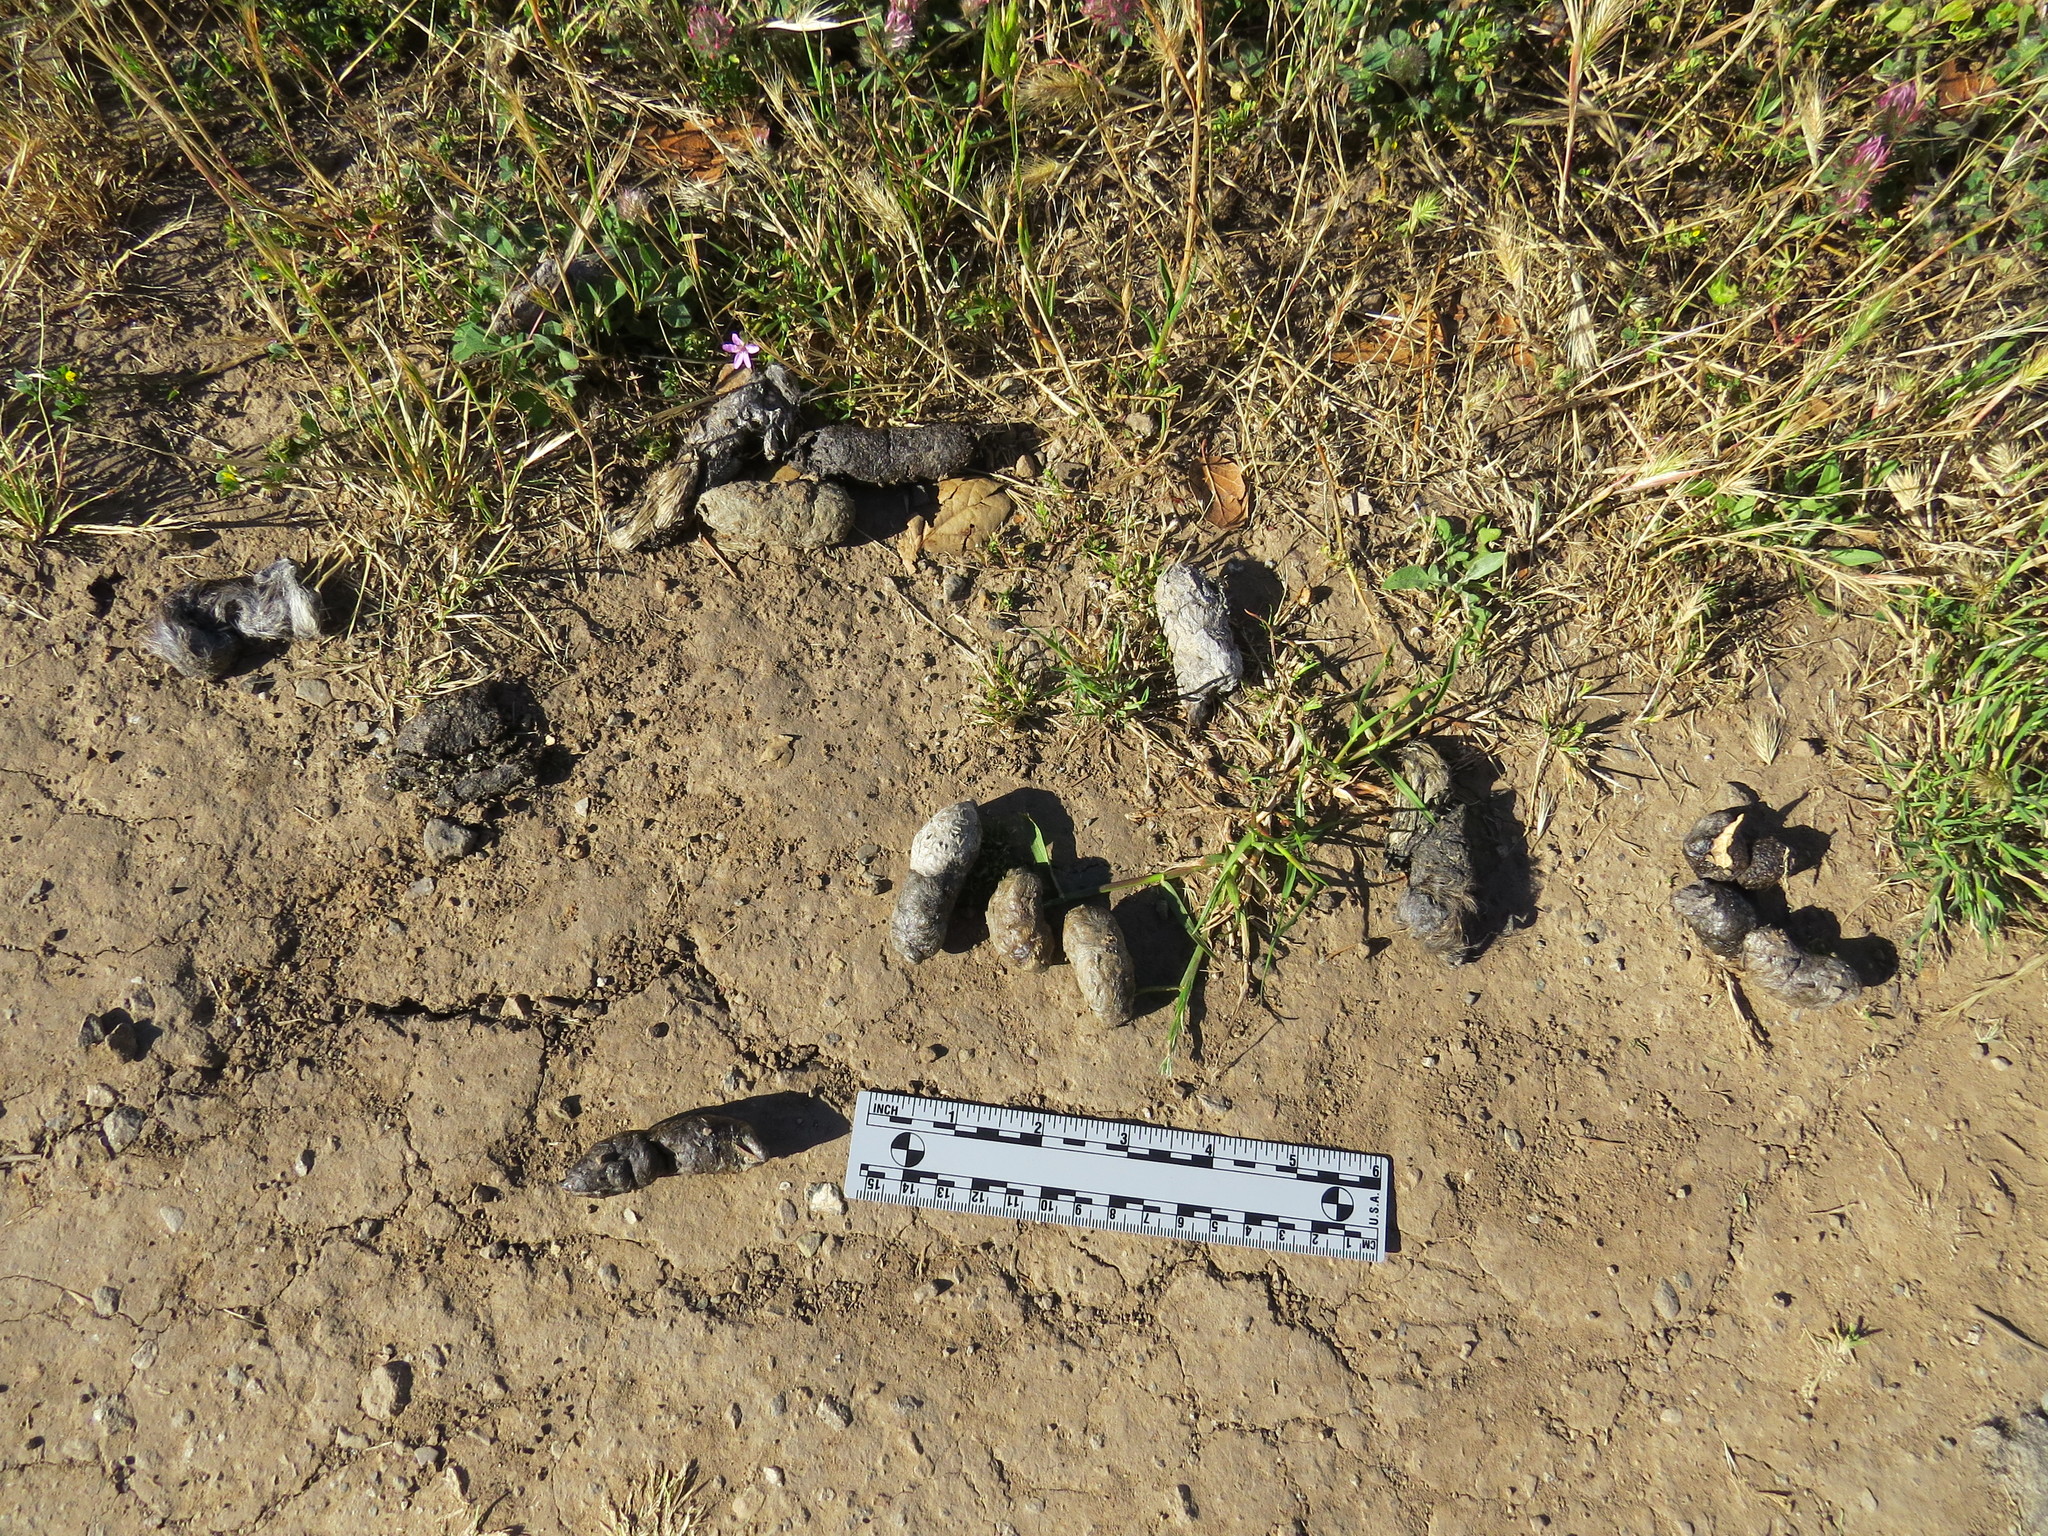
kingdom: Animalia
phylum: Chordata
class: Mammalia
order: Carnivora
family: Felidae
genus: Lynx
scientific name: Lynx rufus
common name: Bobcat
